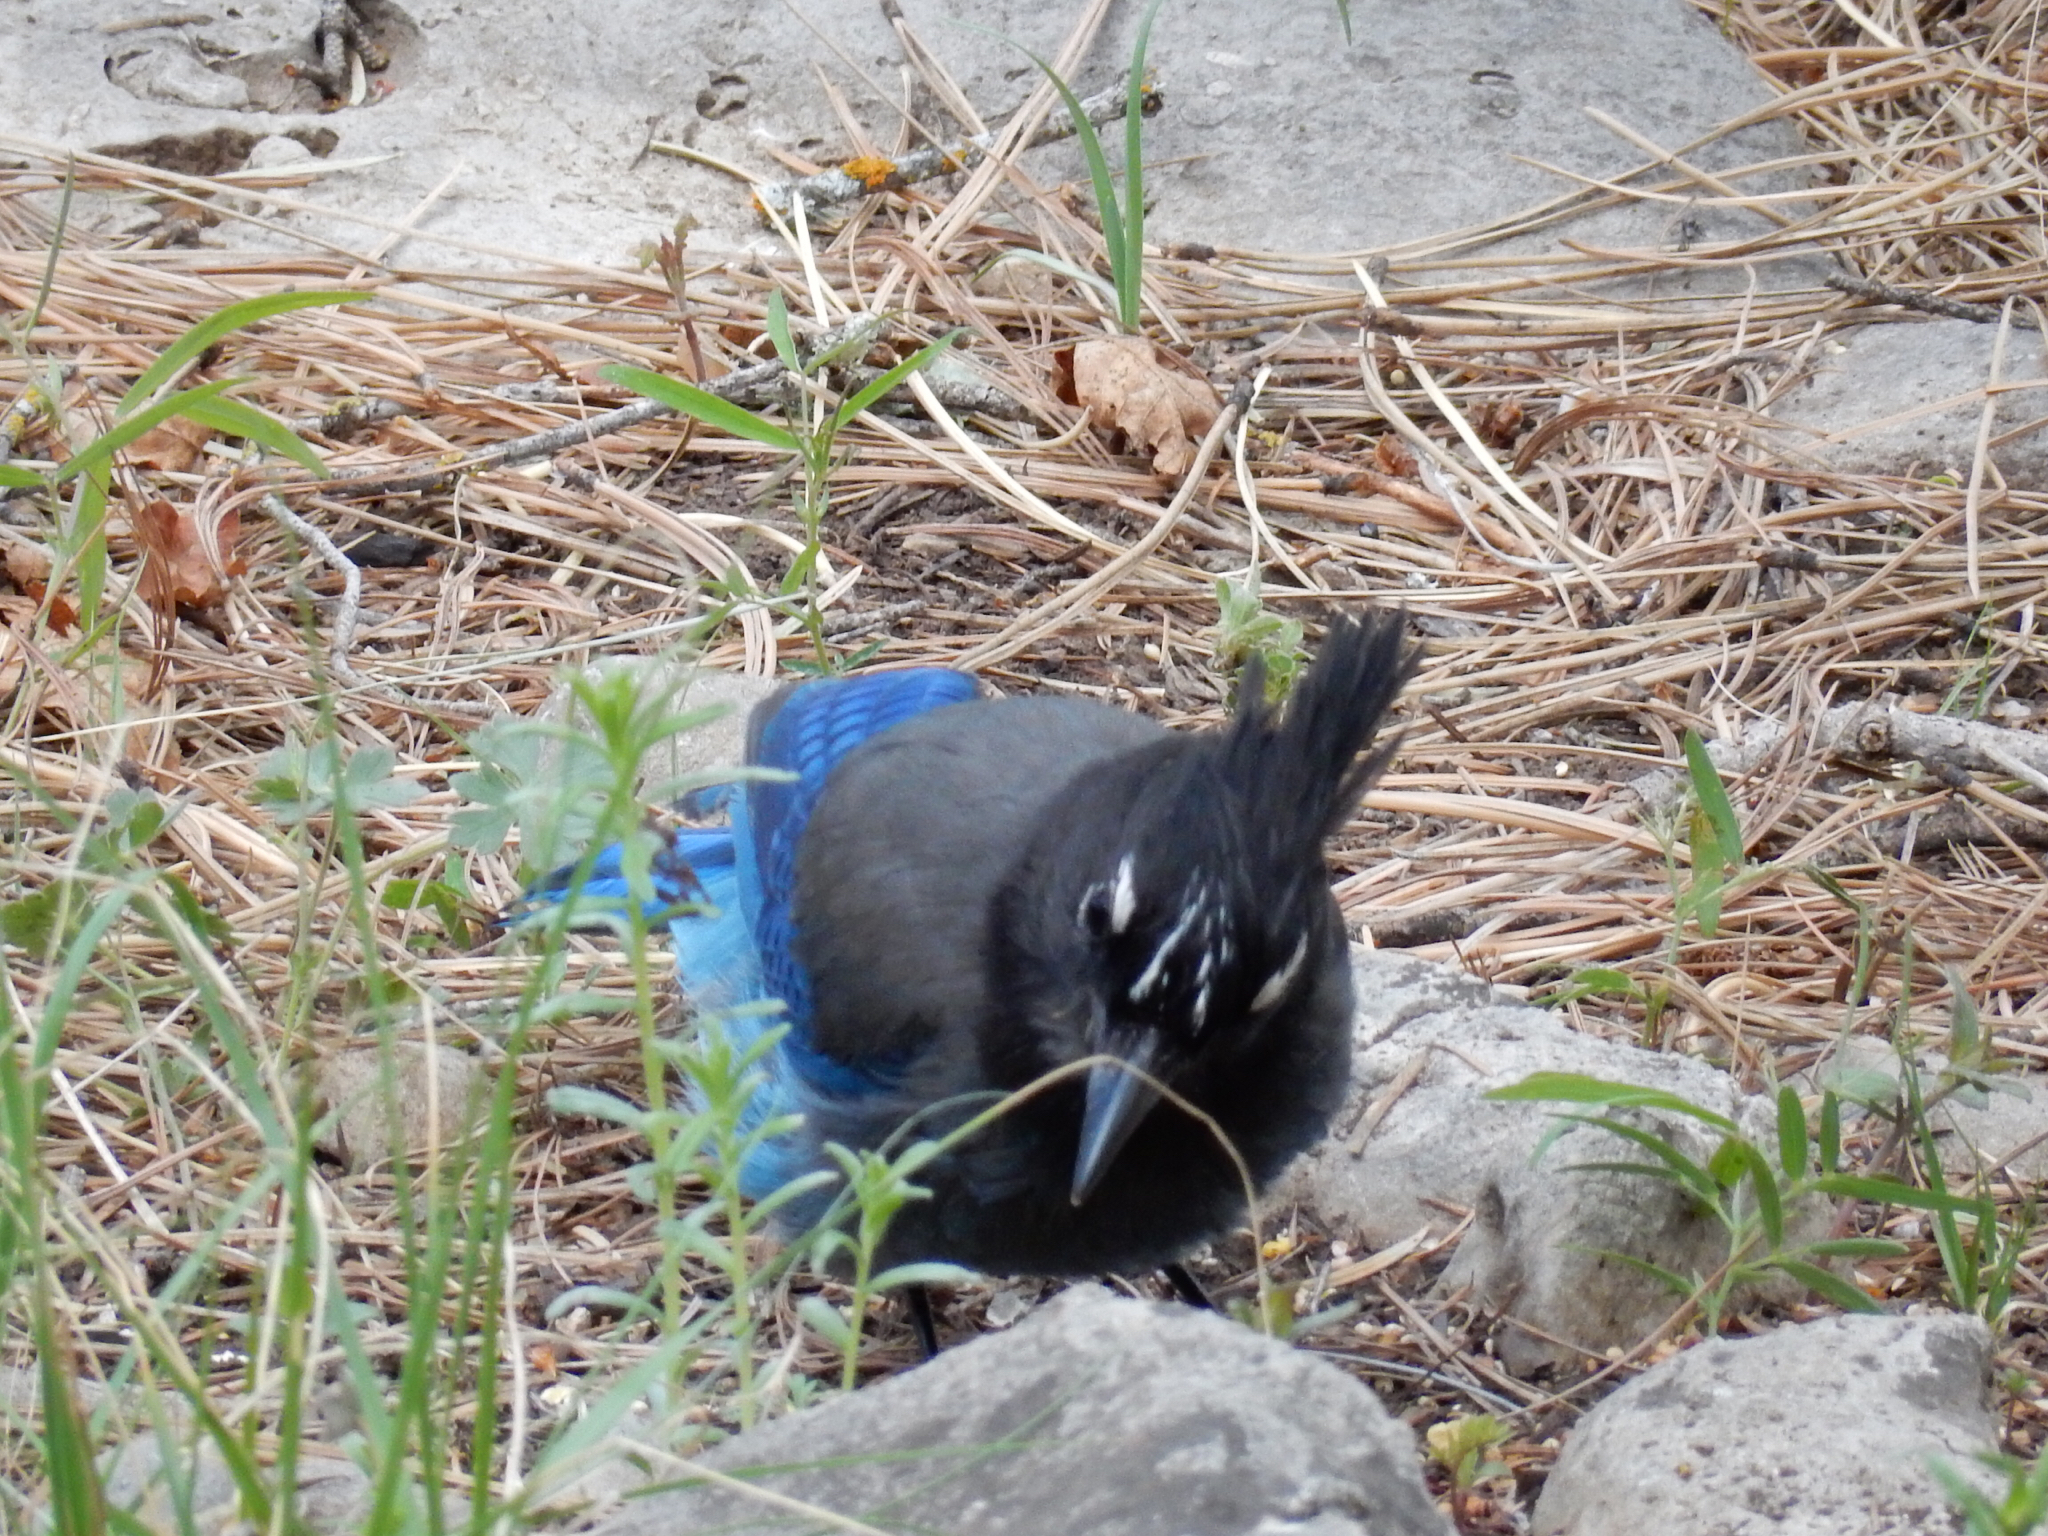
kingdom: Animalia
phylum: Chordata
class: Aves
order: Passeriformes
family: Corvidae
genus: Cyanocitta
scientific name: Cyanocitta stelleri
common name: Steller's jay
